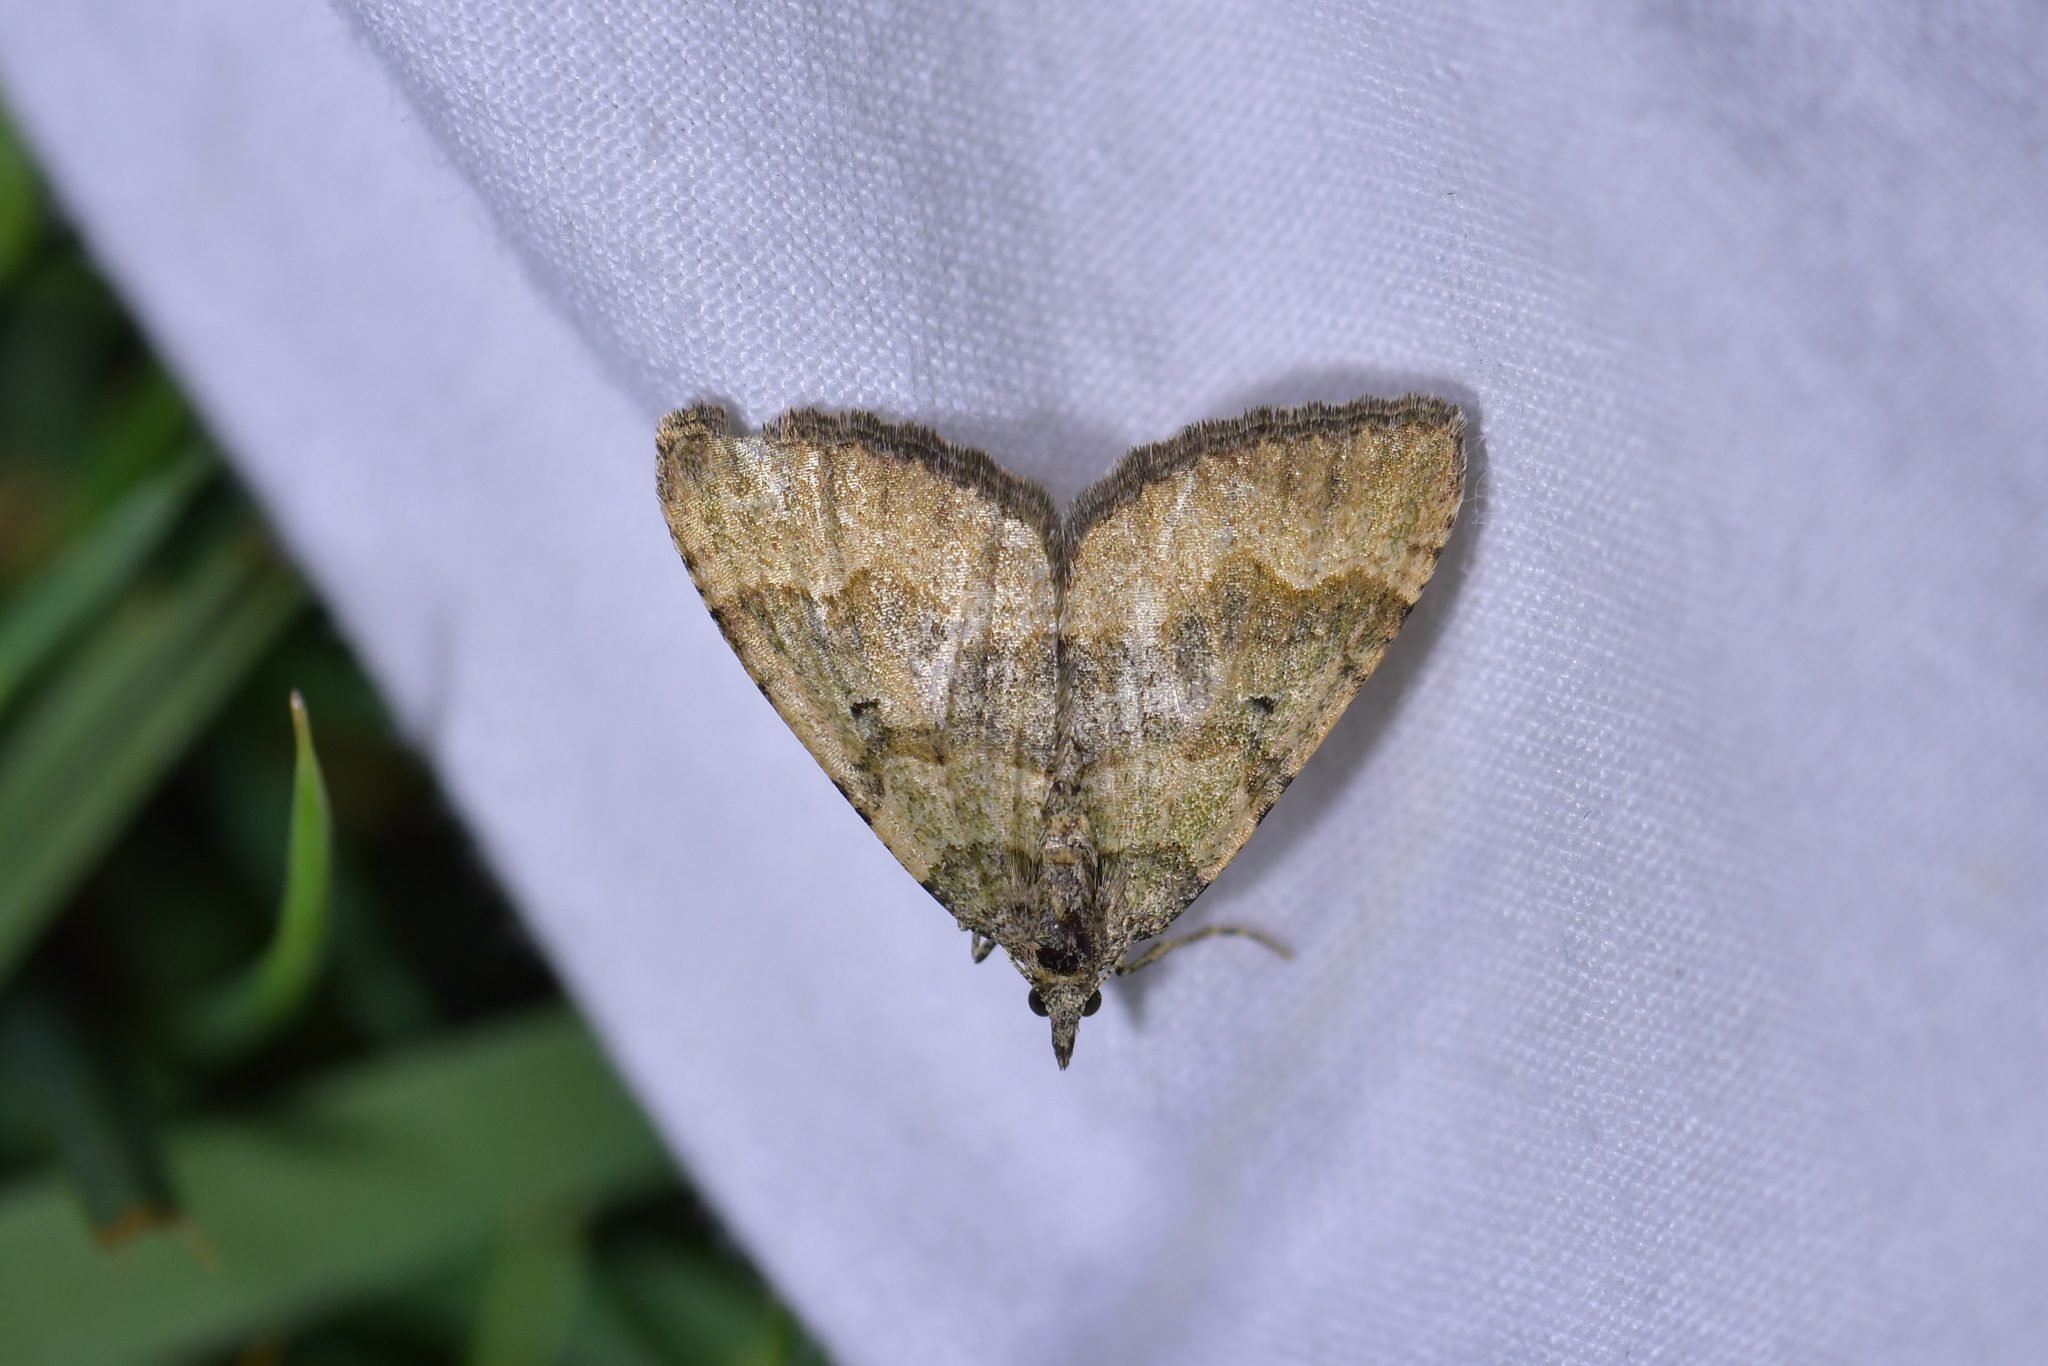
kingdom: Animalia
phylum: Arthropoda
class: Insecta
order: Lepidoptera
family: Geometridae
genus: Epyaxa
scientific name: Epyaxa rosearia
